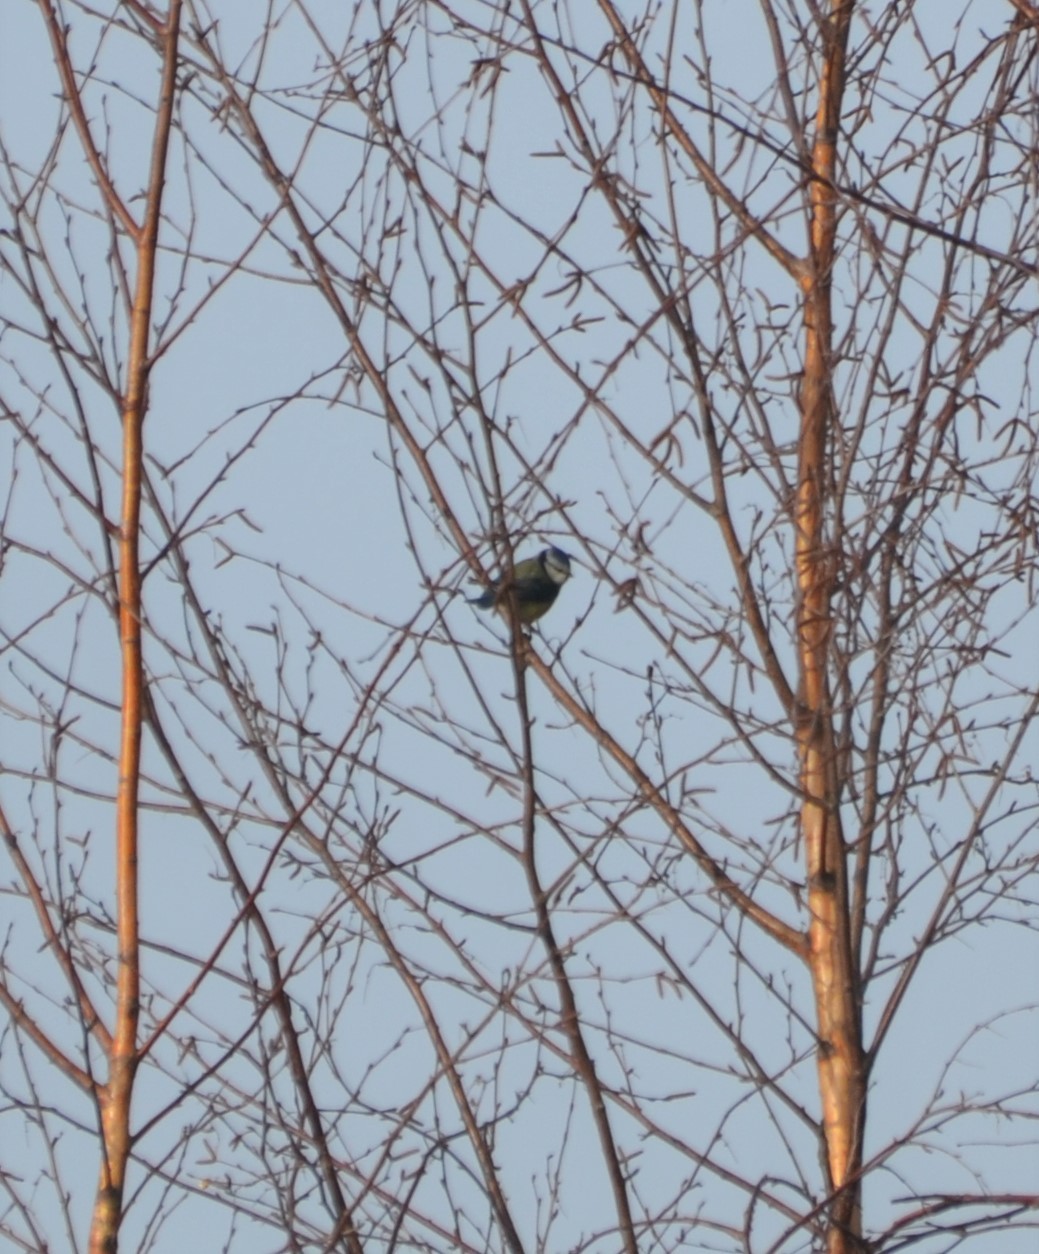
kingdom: Animalia
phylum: Chordata
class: Aves
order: Passeriformes
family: Paridae
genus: Cyanistes
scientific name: Cyanistes caeruleus
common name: Eurasian blue tit
